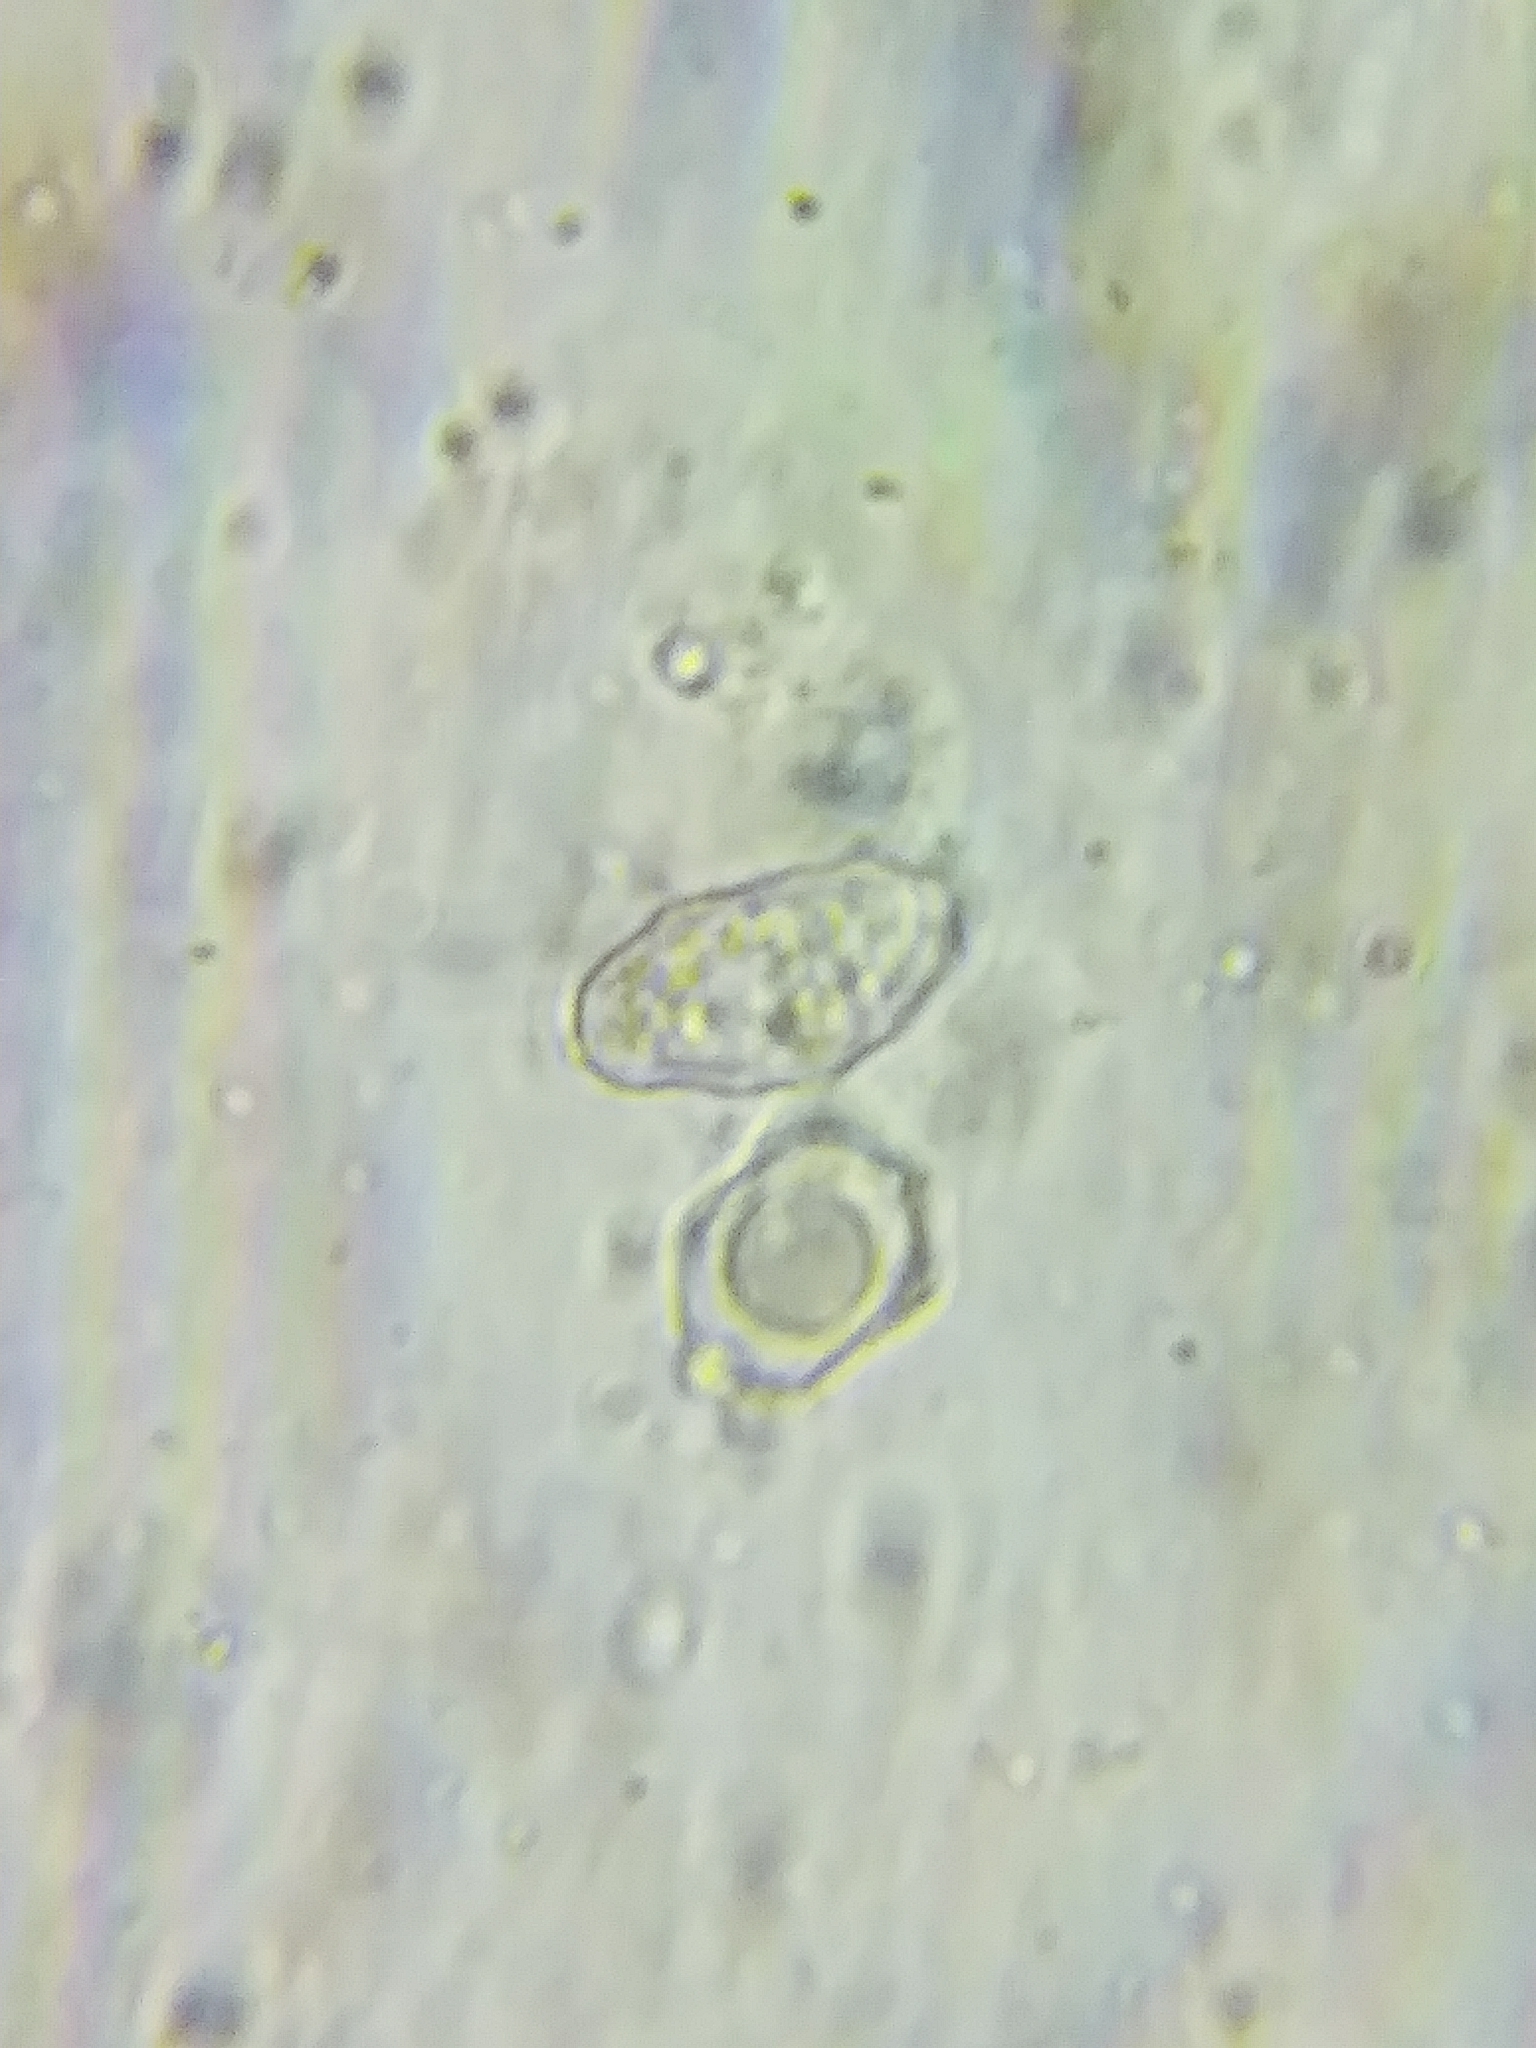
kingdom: Fungi
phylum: Basidiomycota
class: Agaricomycetes
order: Agaricales
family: Entolomataceae
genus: Entoloma
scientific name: Entoloma formosum
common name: Pretty pinkgill
